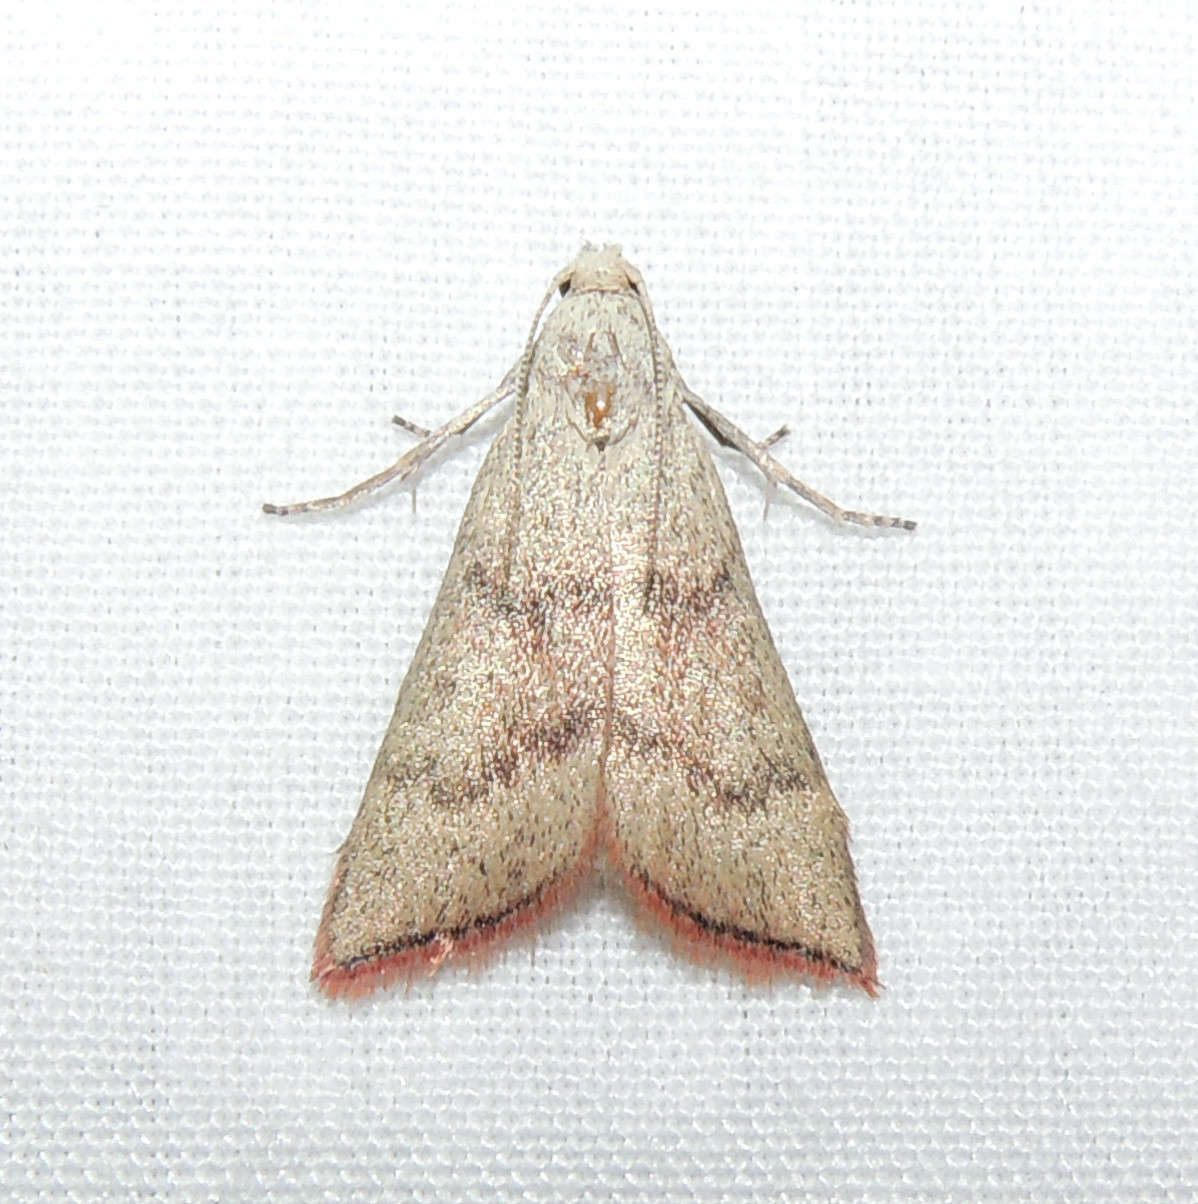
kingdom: Animalia
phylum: Arthropoda
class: Insecta
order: Lepidoptera
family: Pyralidae
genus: Callionyma
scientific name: Callionyma sarcodes
